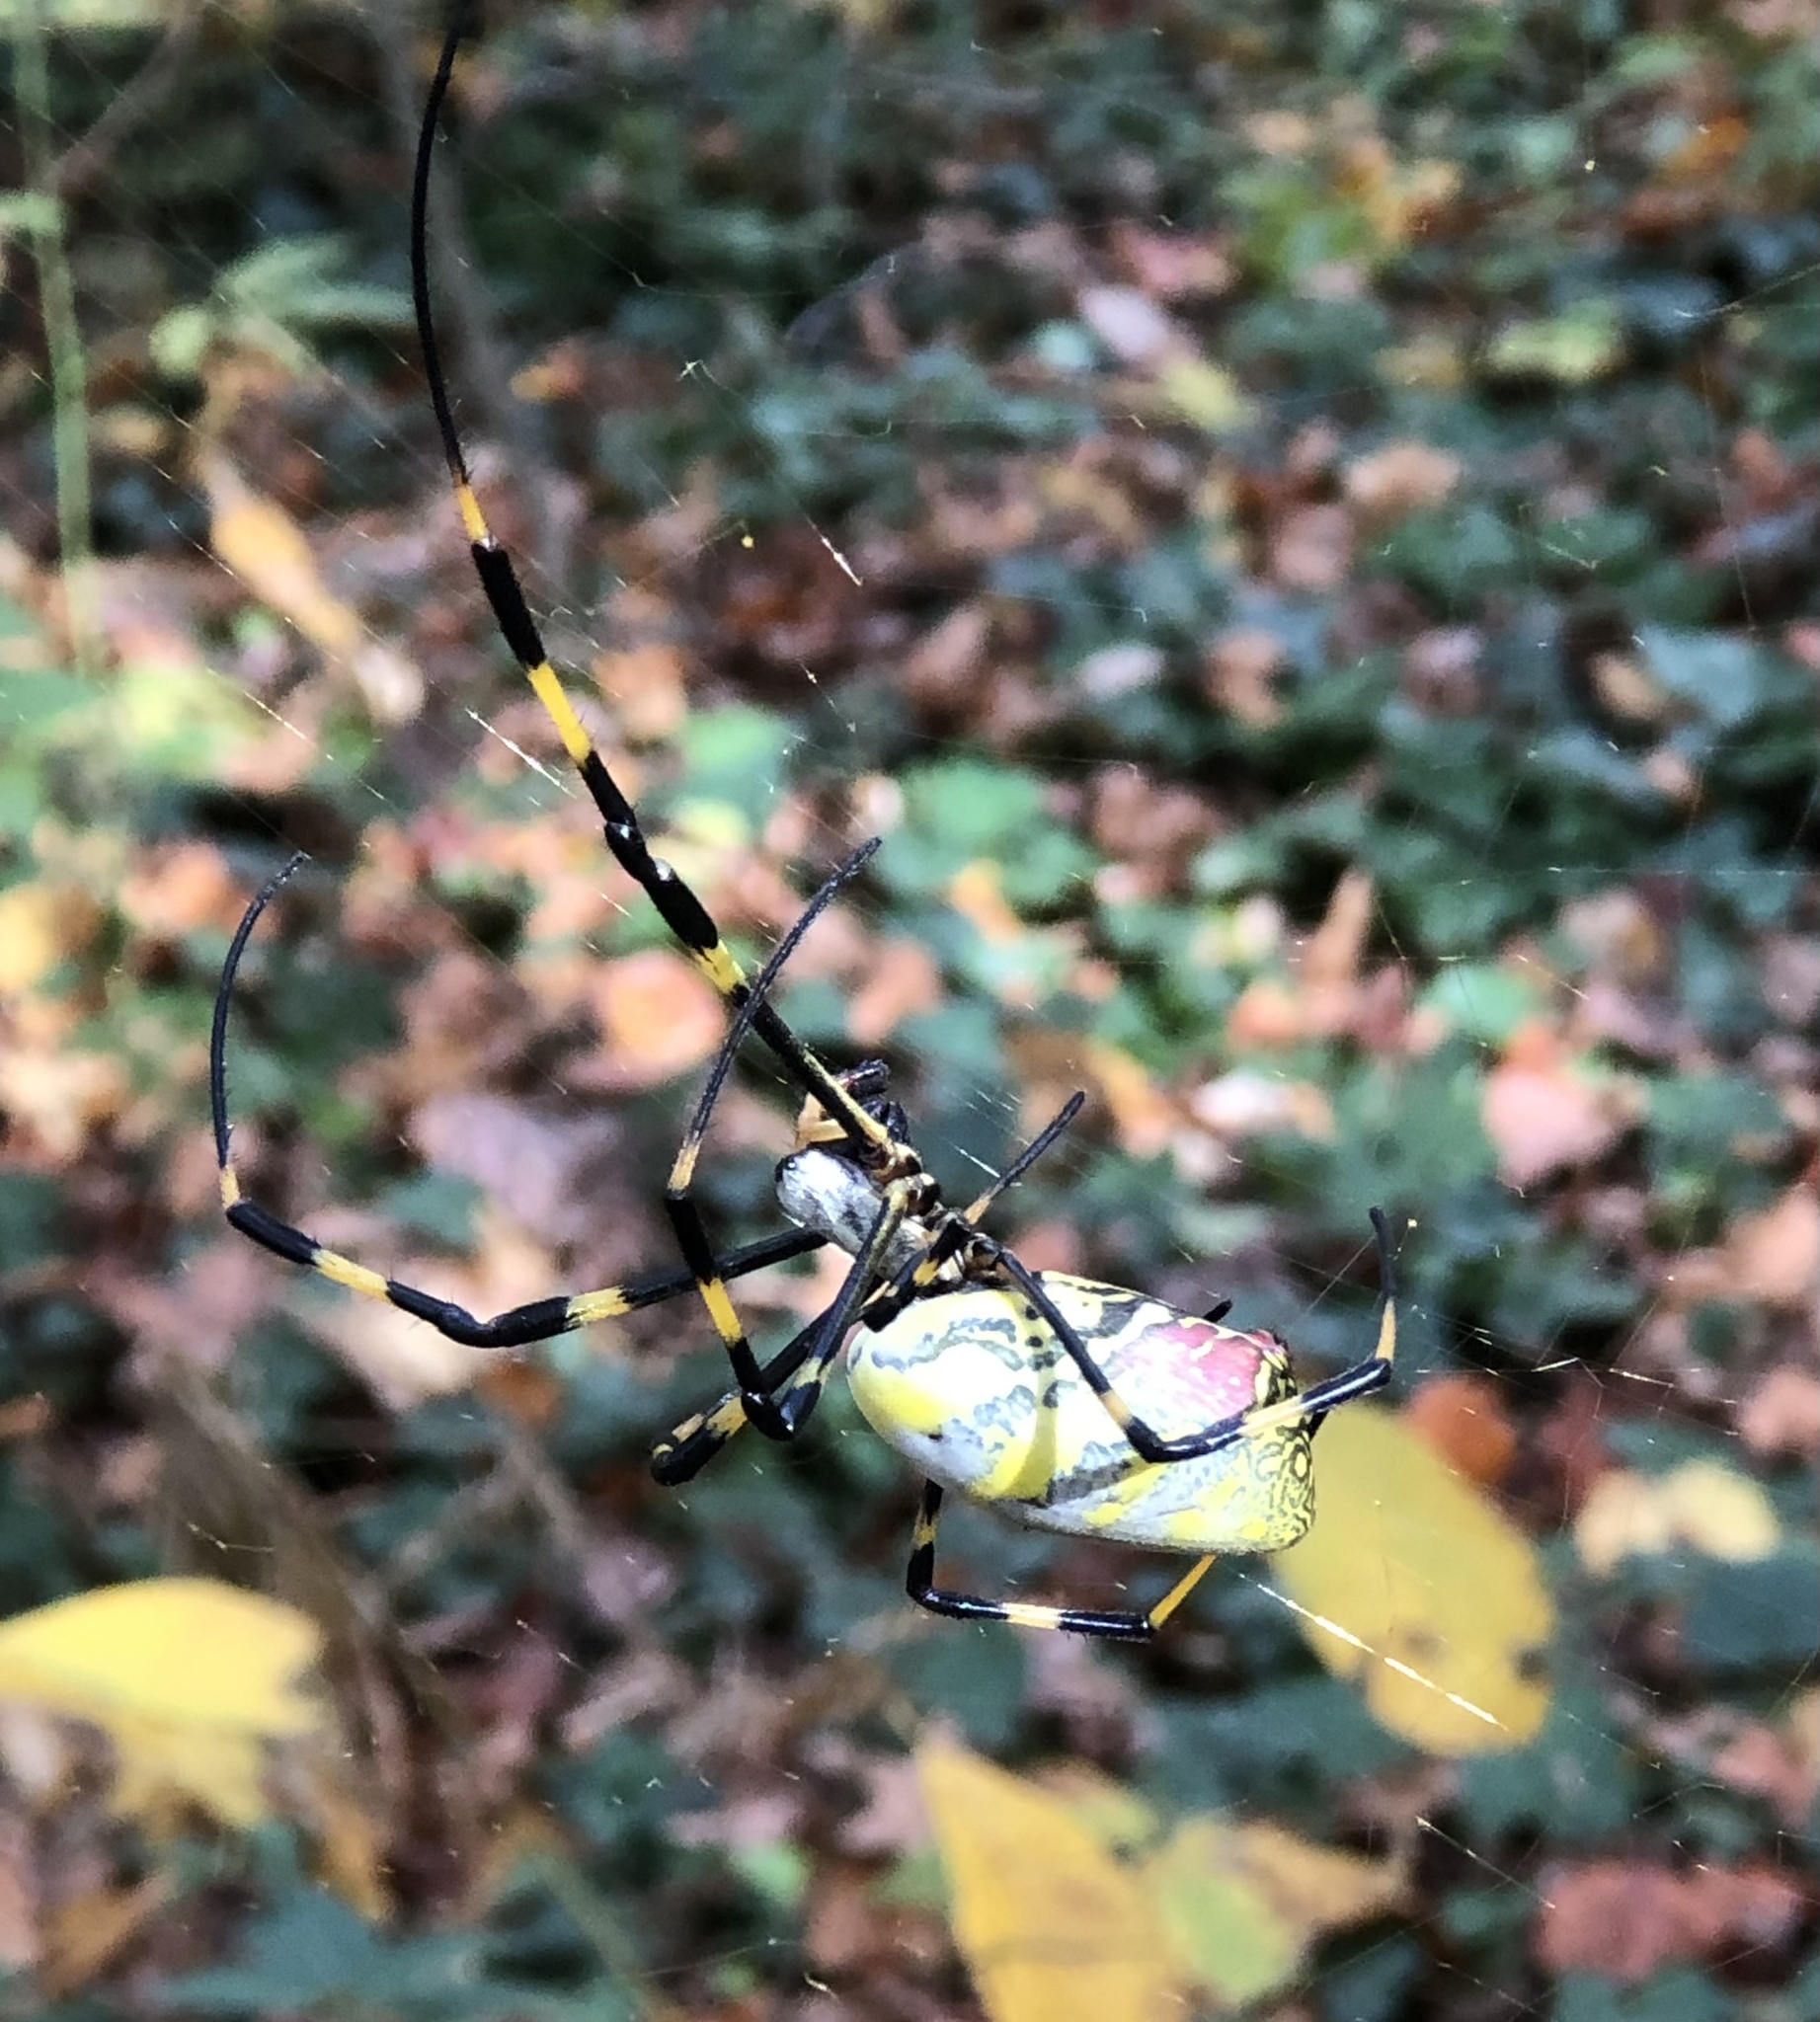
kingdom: Animalia
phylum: Arthropoda
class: Arachnida
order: Araneae
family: Araneidae
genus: Trichonephila
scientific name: Trichonephila clavata
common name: Jorō spider
